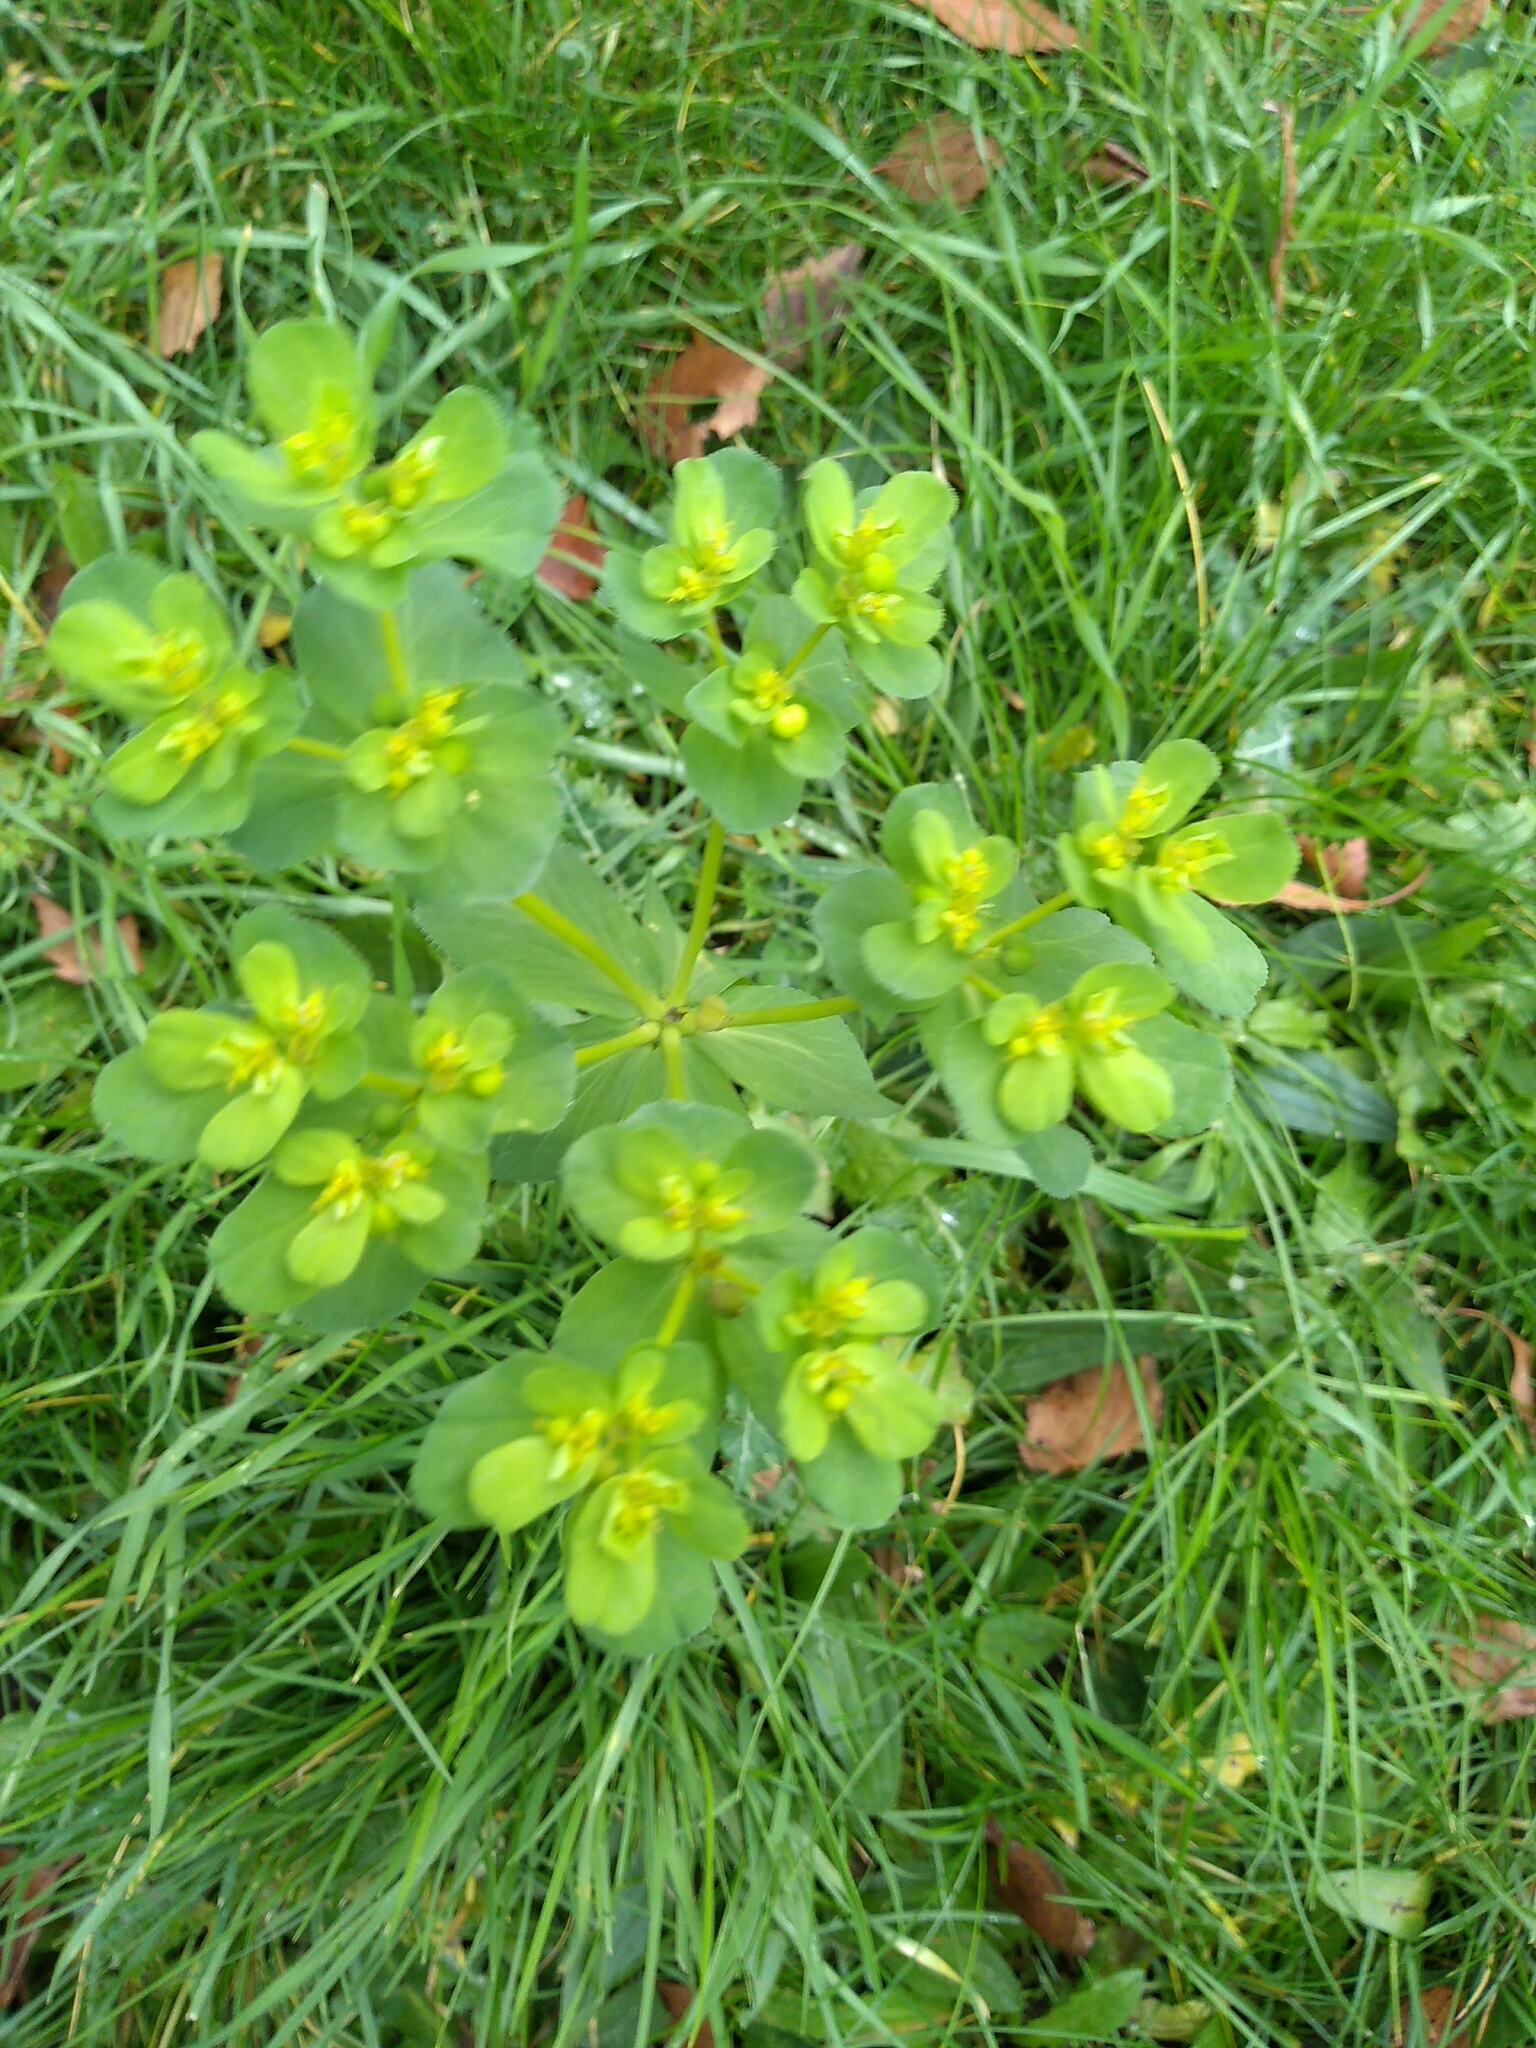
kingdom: Plantae
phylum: Tracheophyta
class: Magnoliopsida
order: Malpighiales
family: Euphorbiaceae
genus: Euphorbia
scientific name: Euphorbia helioscopia
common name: Sun spurge
